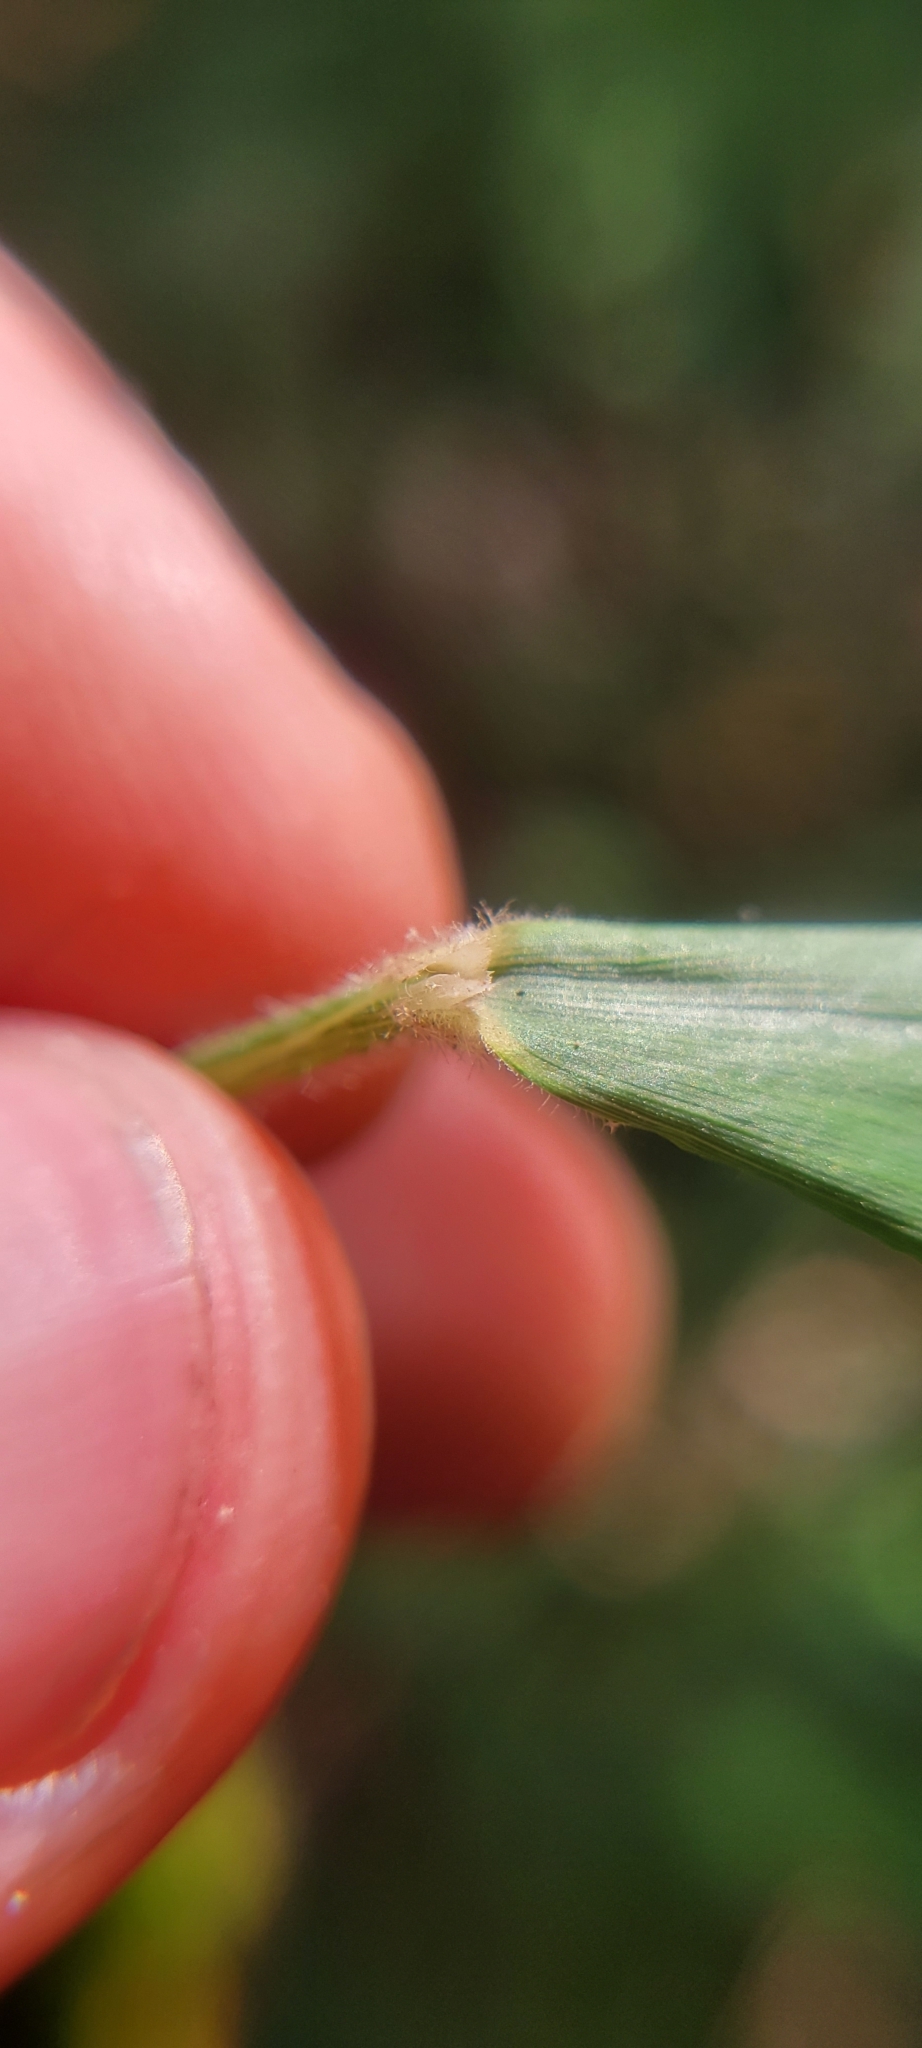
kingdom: Plantae
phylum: Tracheophyta
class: Liliopsida
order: Poales
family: Poaceae
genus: Brachyelytrum
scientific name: Brachyelytrum erectum
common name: Bearded shorthusk
